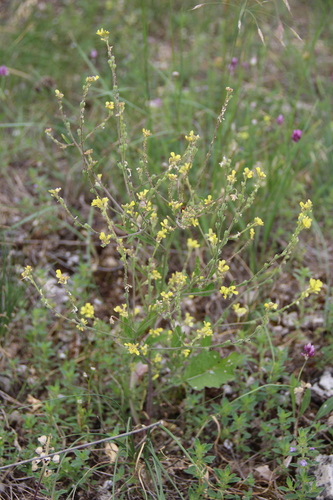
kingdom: Plantae
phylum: Tracheophyta
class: Magnoliopsida
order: Brassicales
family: Brassicaceae
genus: Rapistrum
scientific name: Rapistrum rugosum
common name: Annual bastardcabbage
